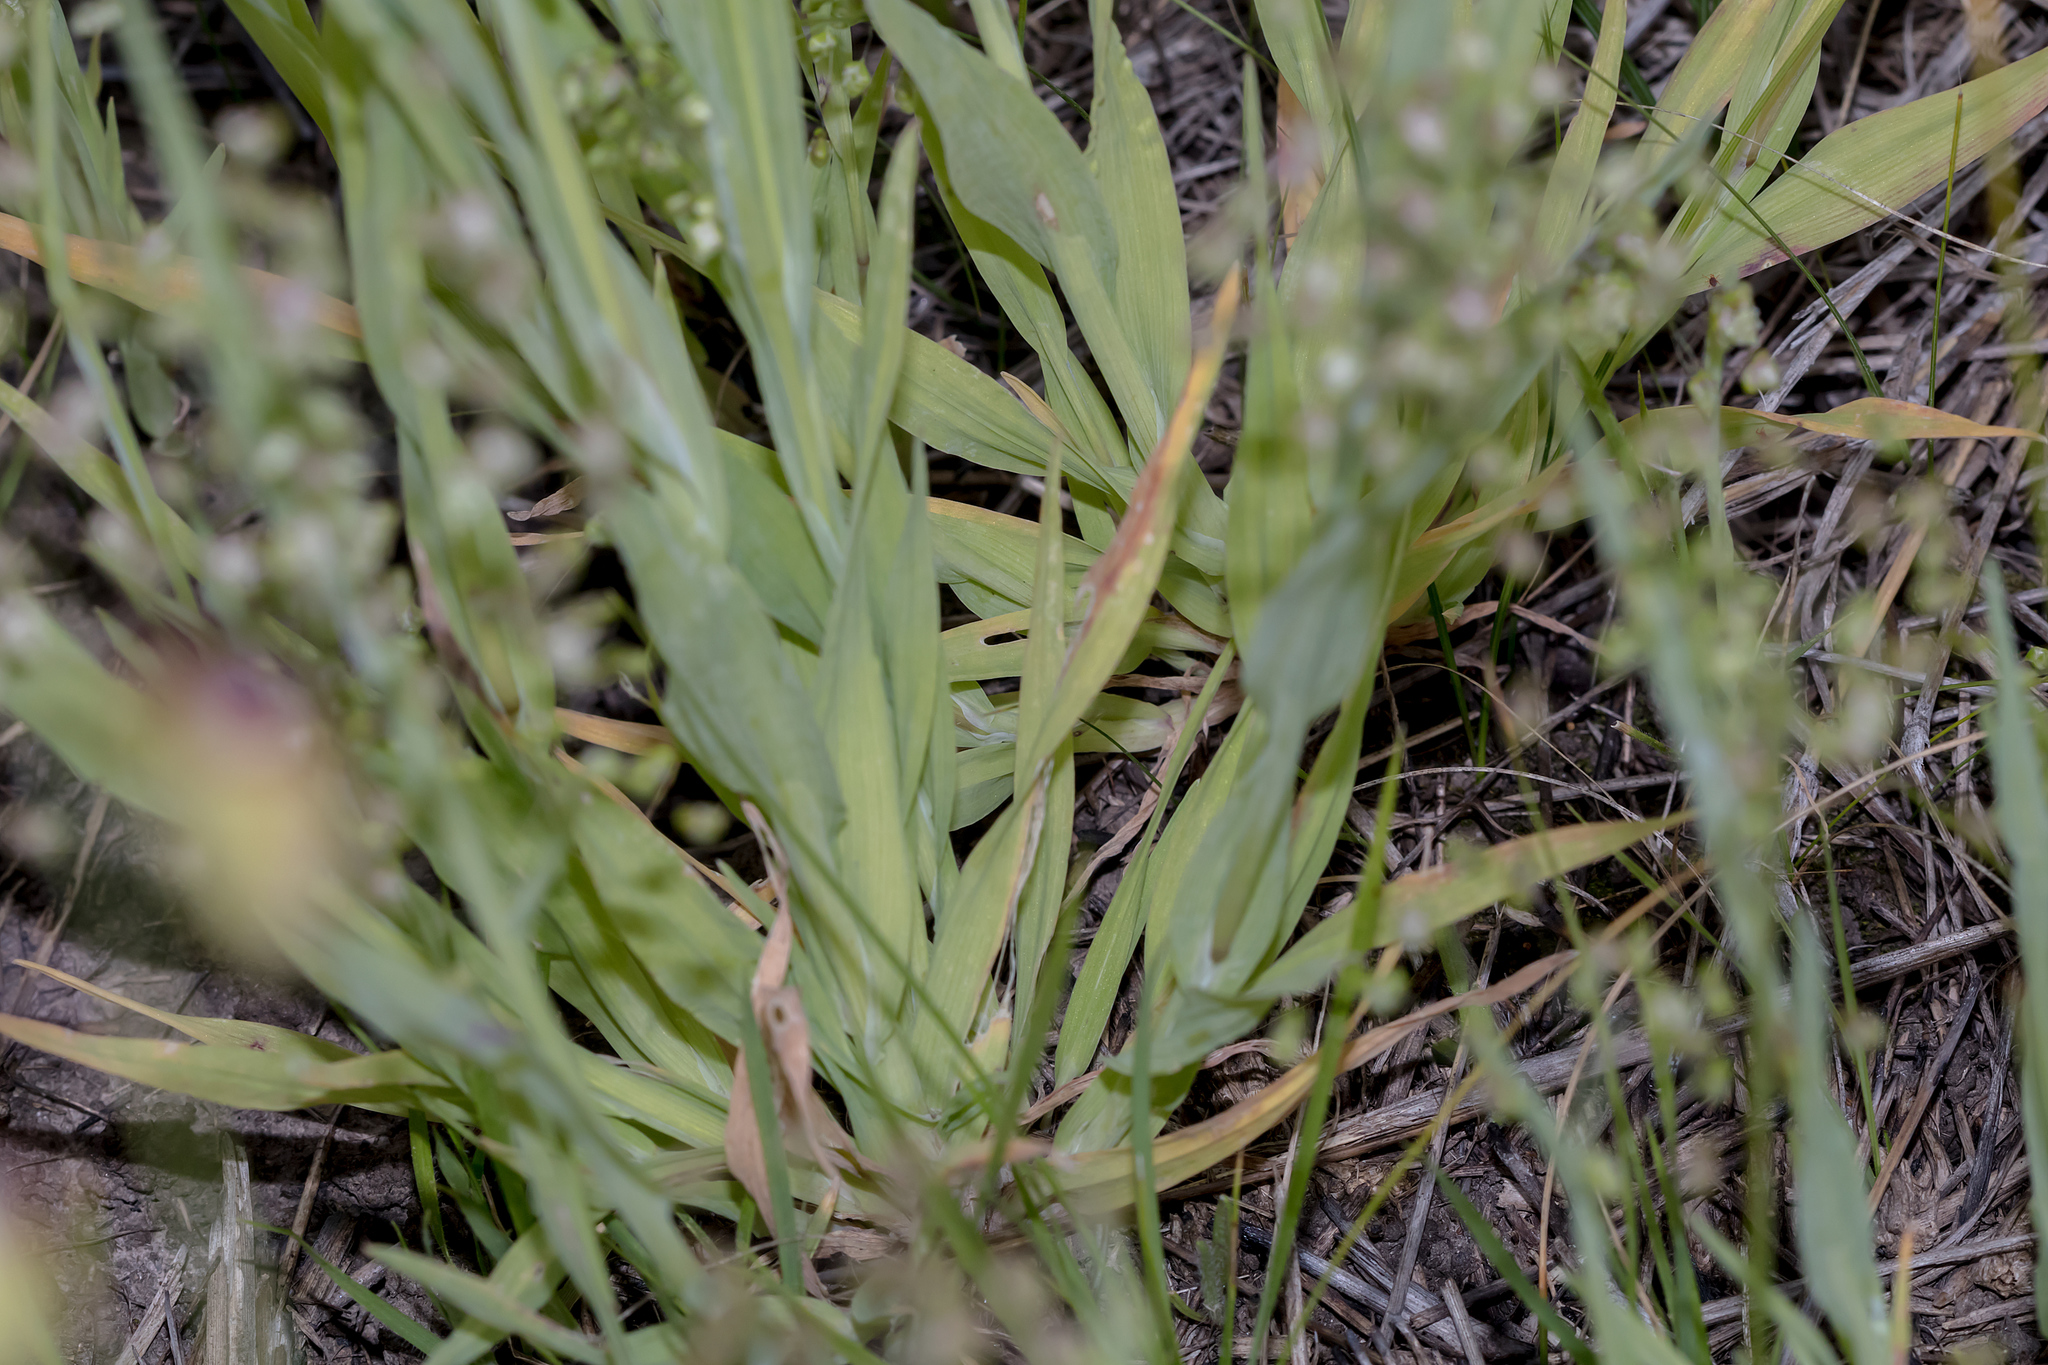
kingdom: Plantae
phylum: Tracheophyta
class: Liliopsida
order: Poales
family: Poaceae
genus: Briza
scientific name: Briza minor
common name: Lesser quaking-grass
